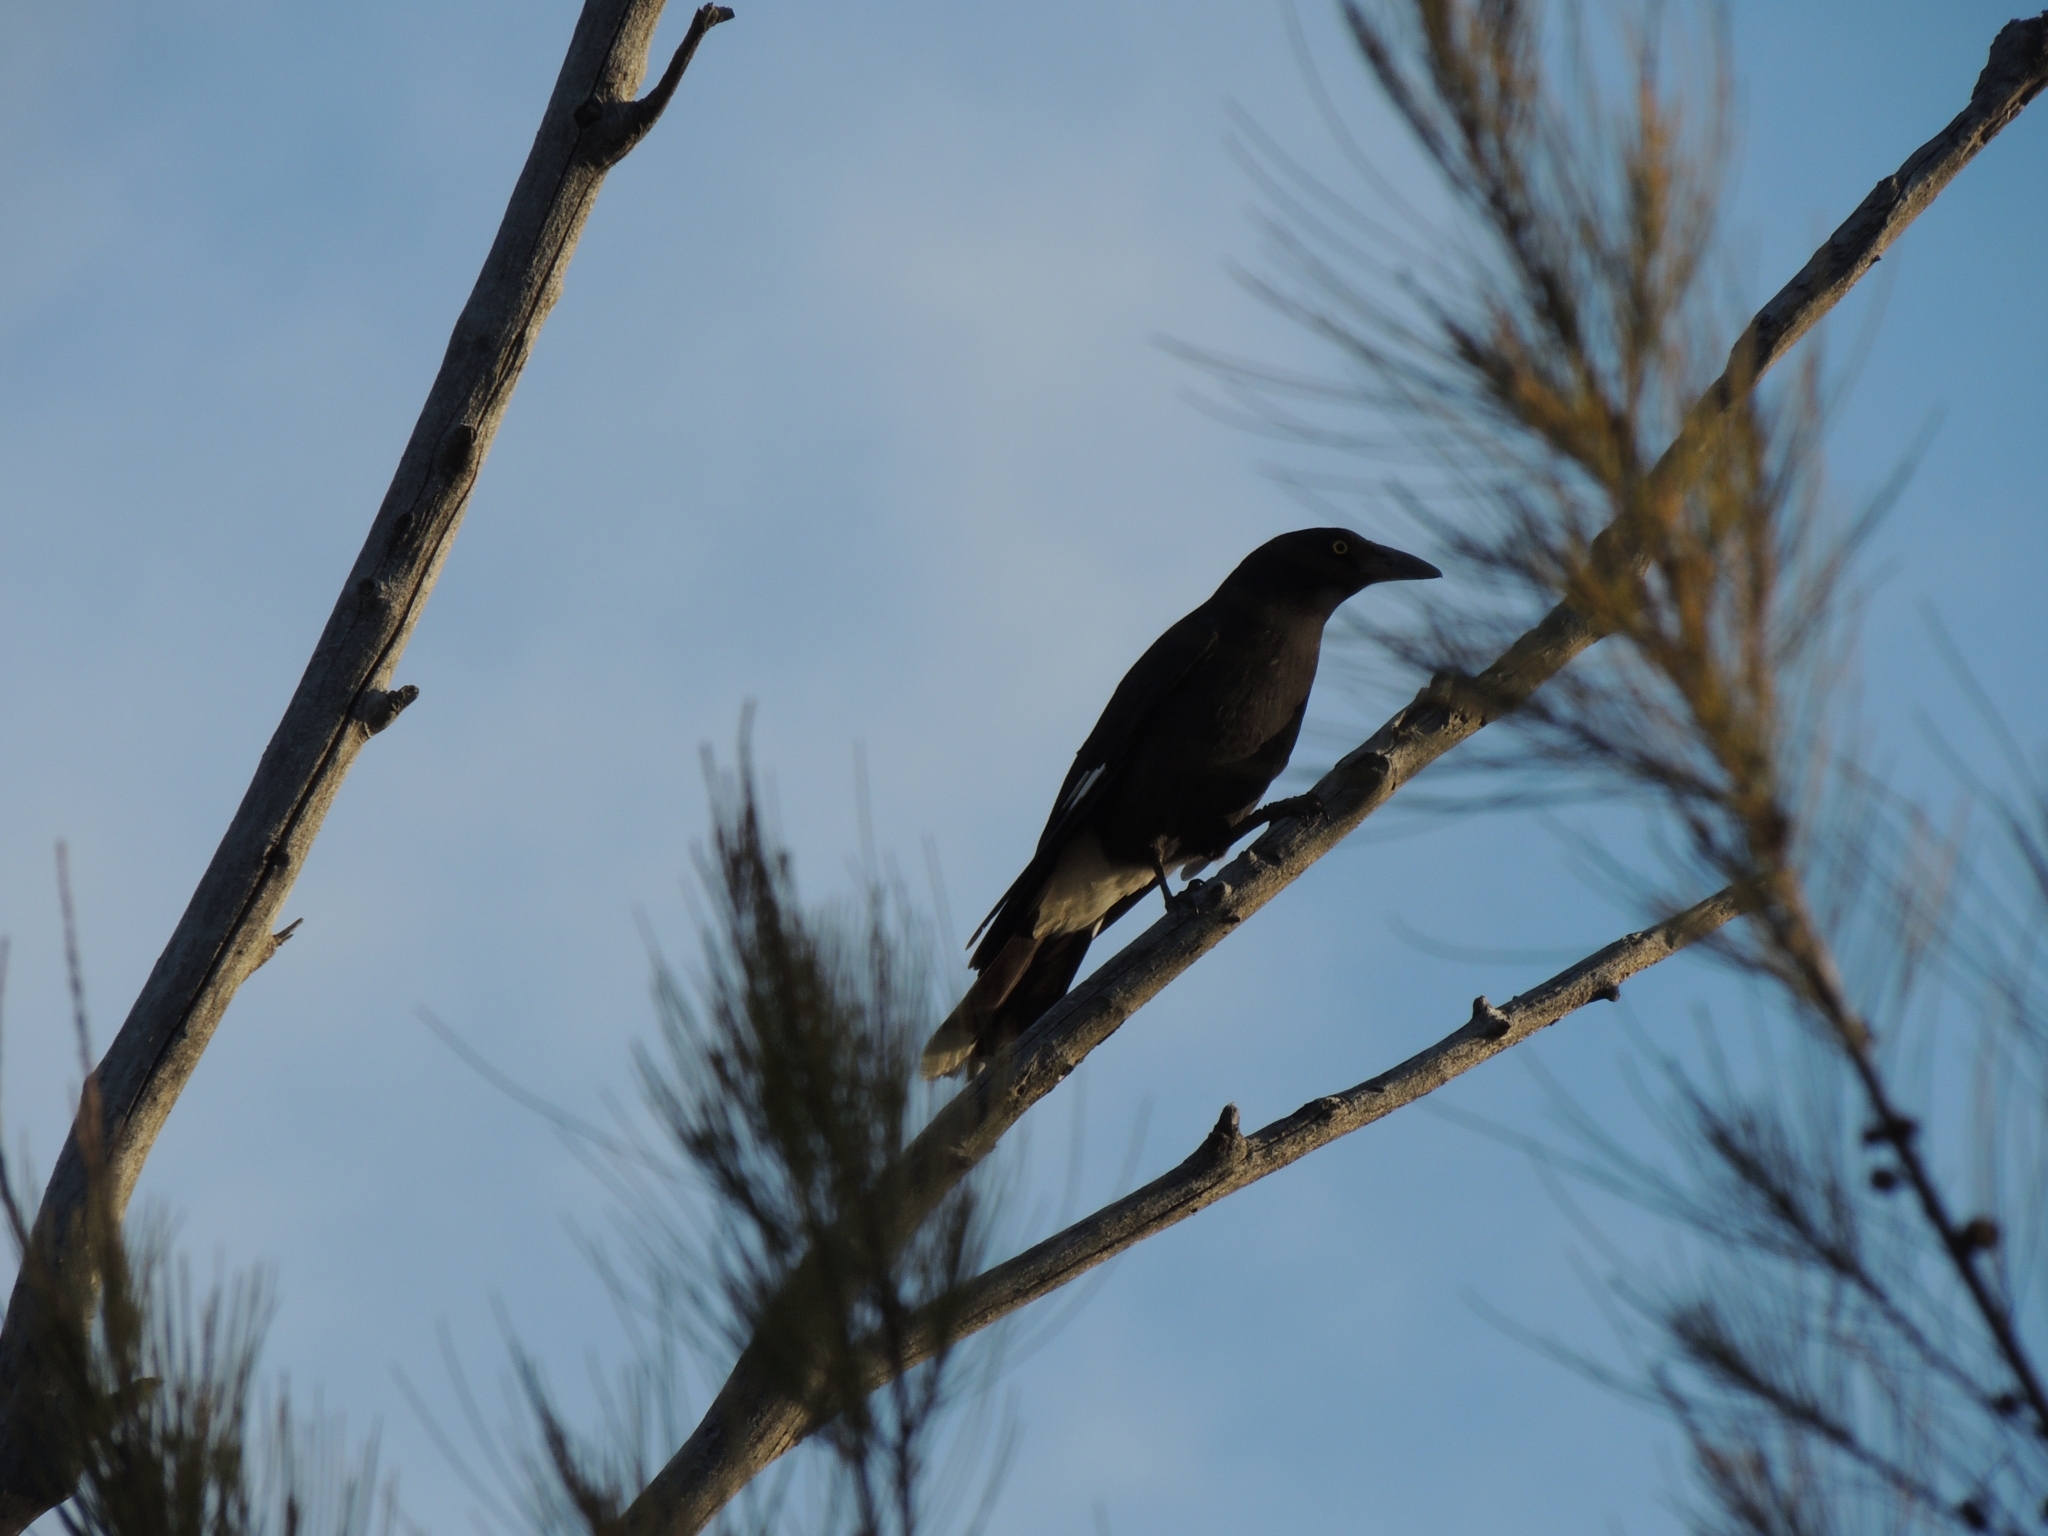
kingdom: Animalia
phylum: Chordata
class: Aves
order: Passeriformes
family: Cracticidae
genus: Strepera
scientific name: Strepera graculina
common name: Pied currawong
